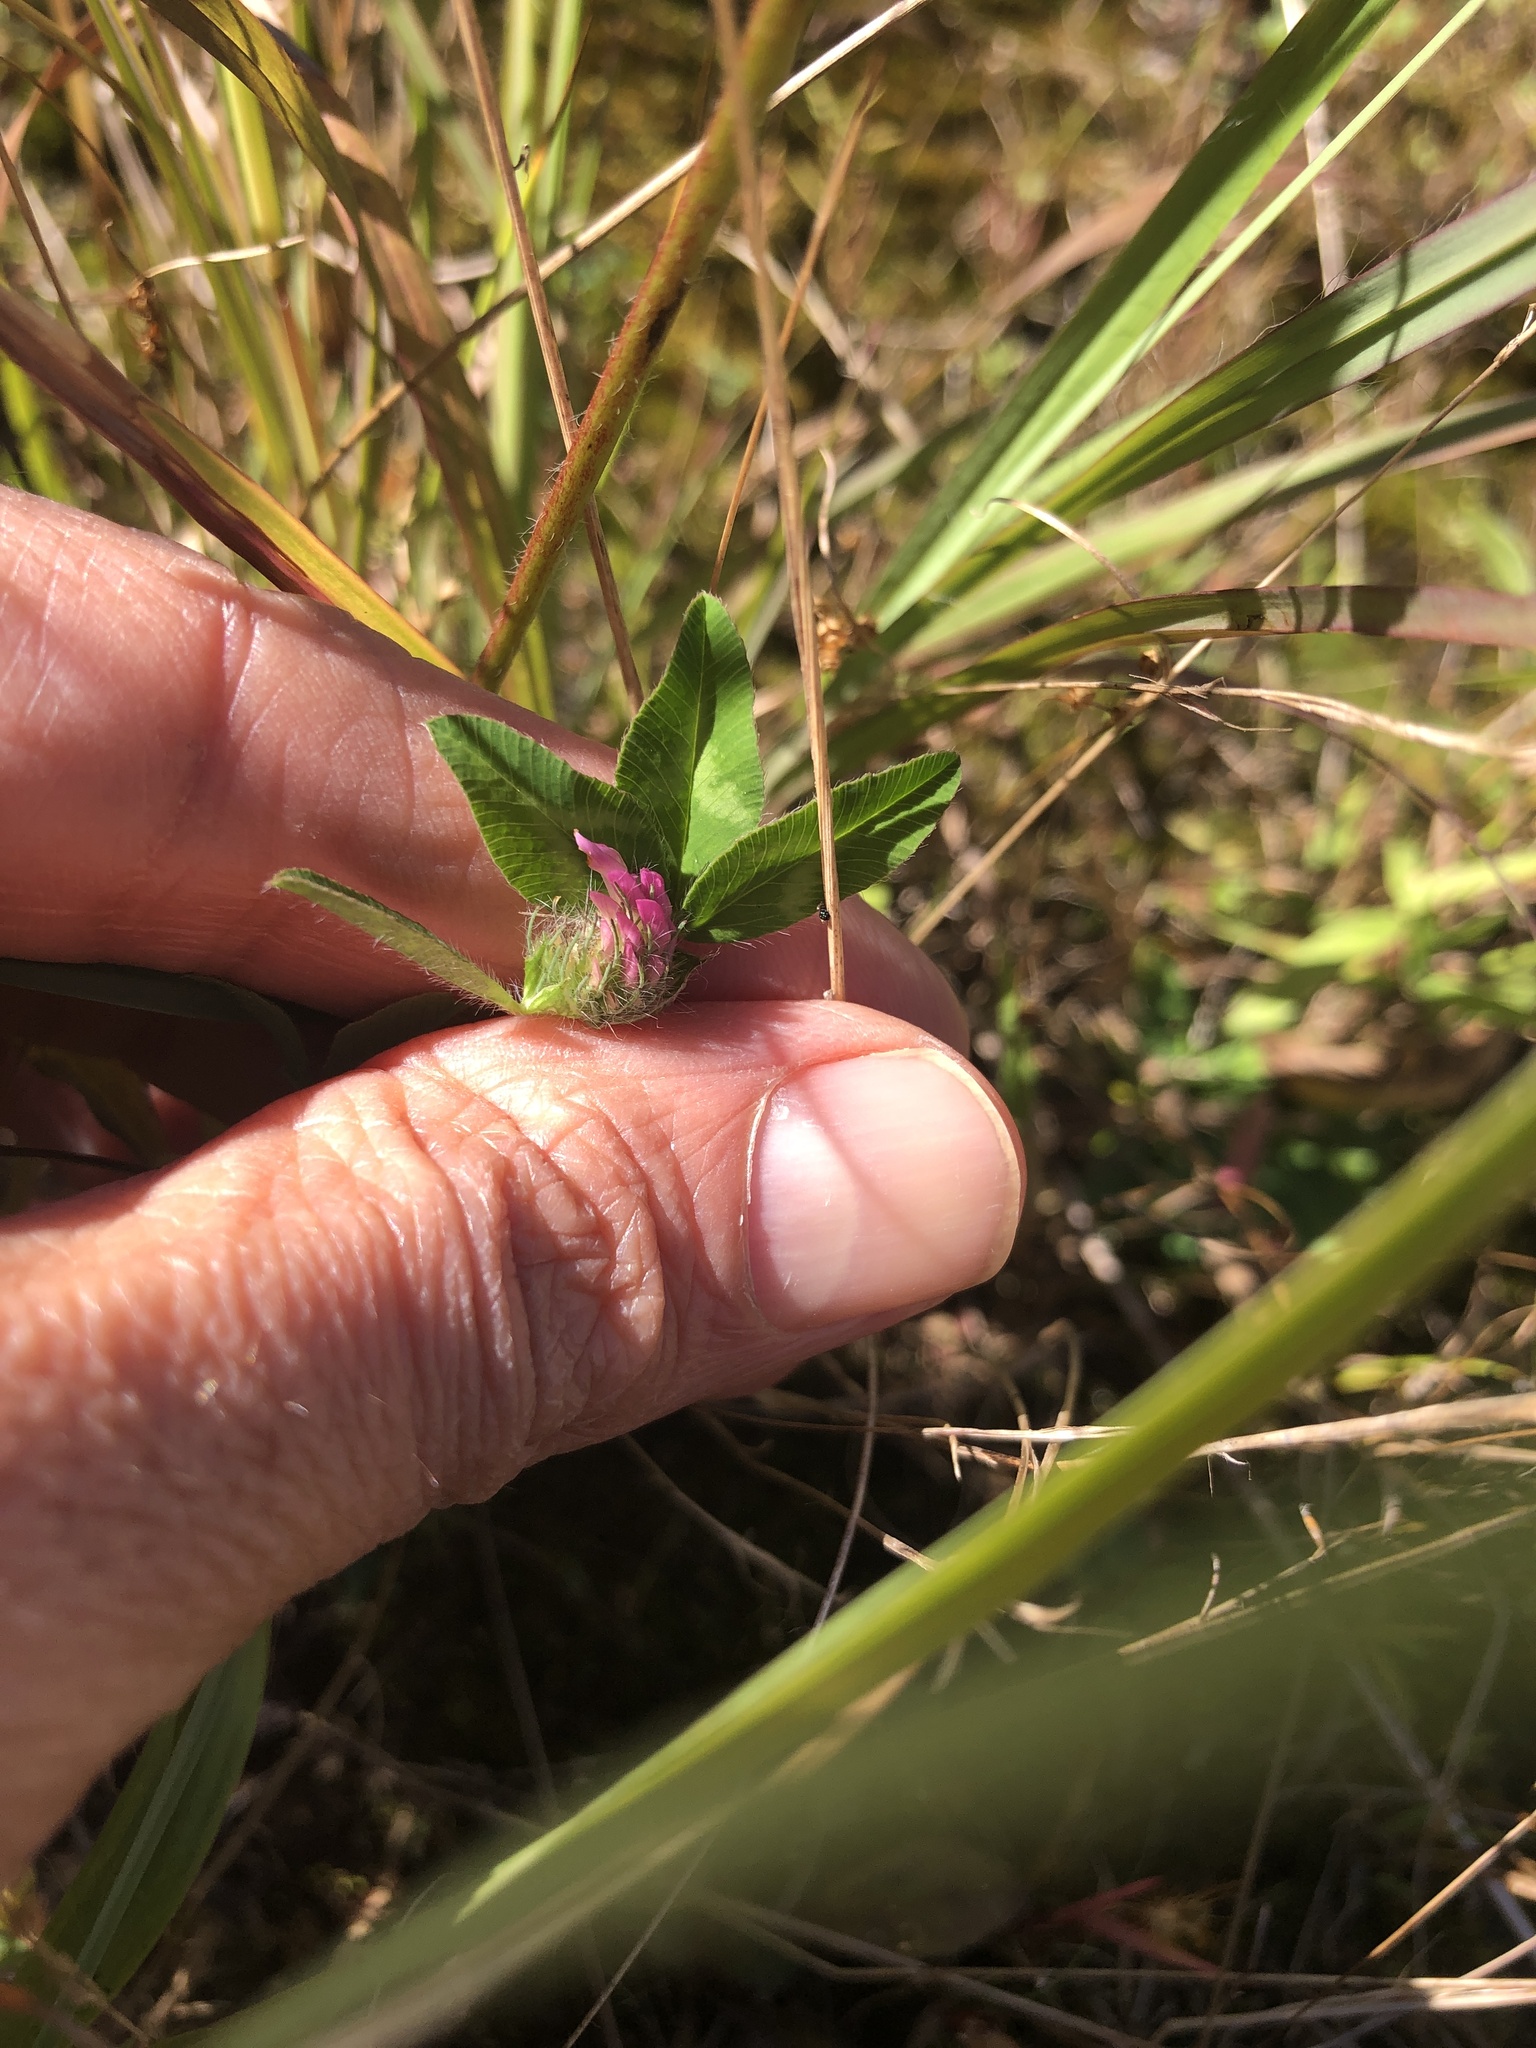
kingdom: Plantae
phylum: Tracheophyta
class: Magnoliopsida
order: Fabales
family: Fabaceae
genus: Trifolium
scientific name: Trifolium pratense
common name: Red clover
